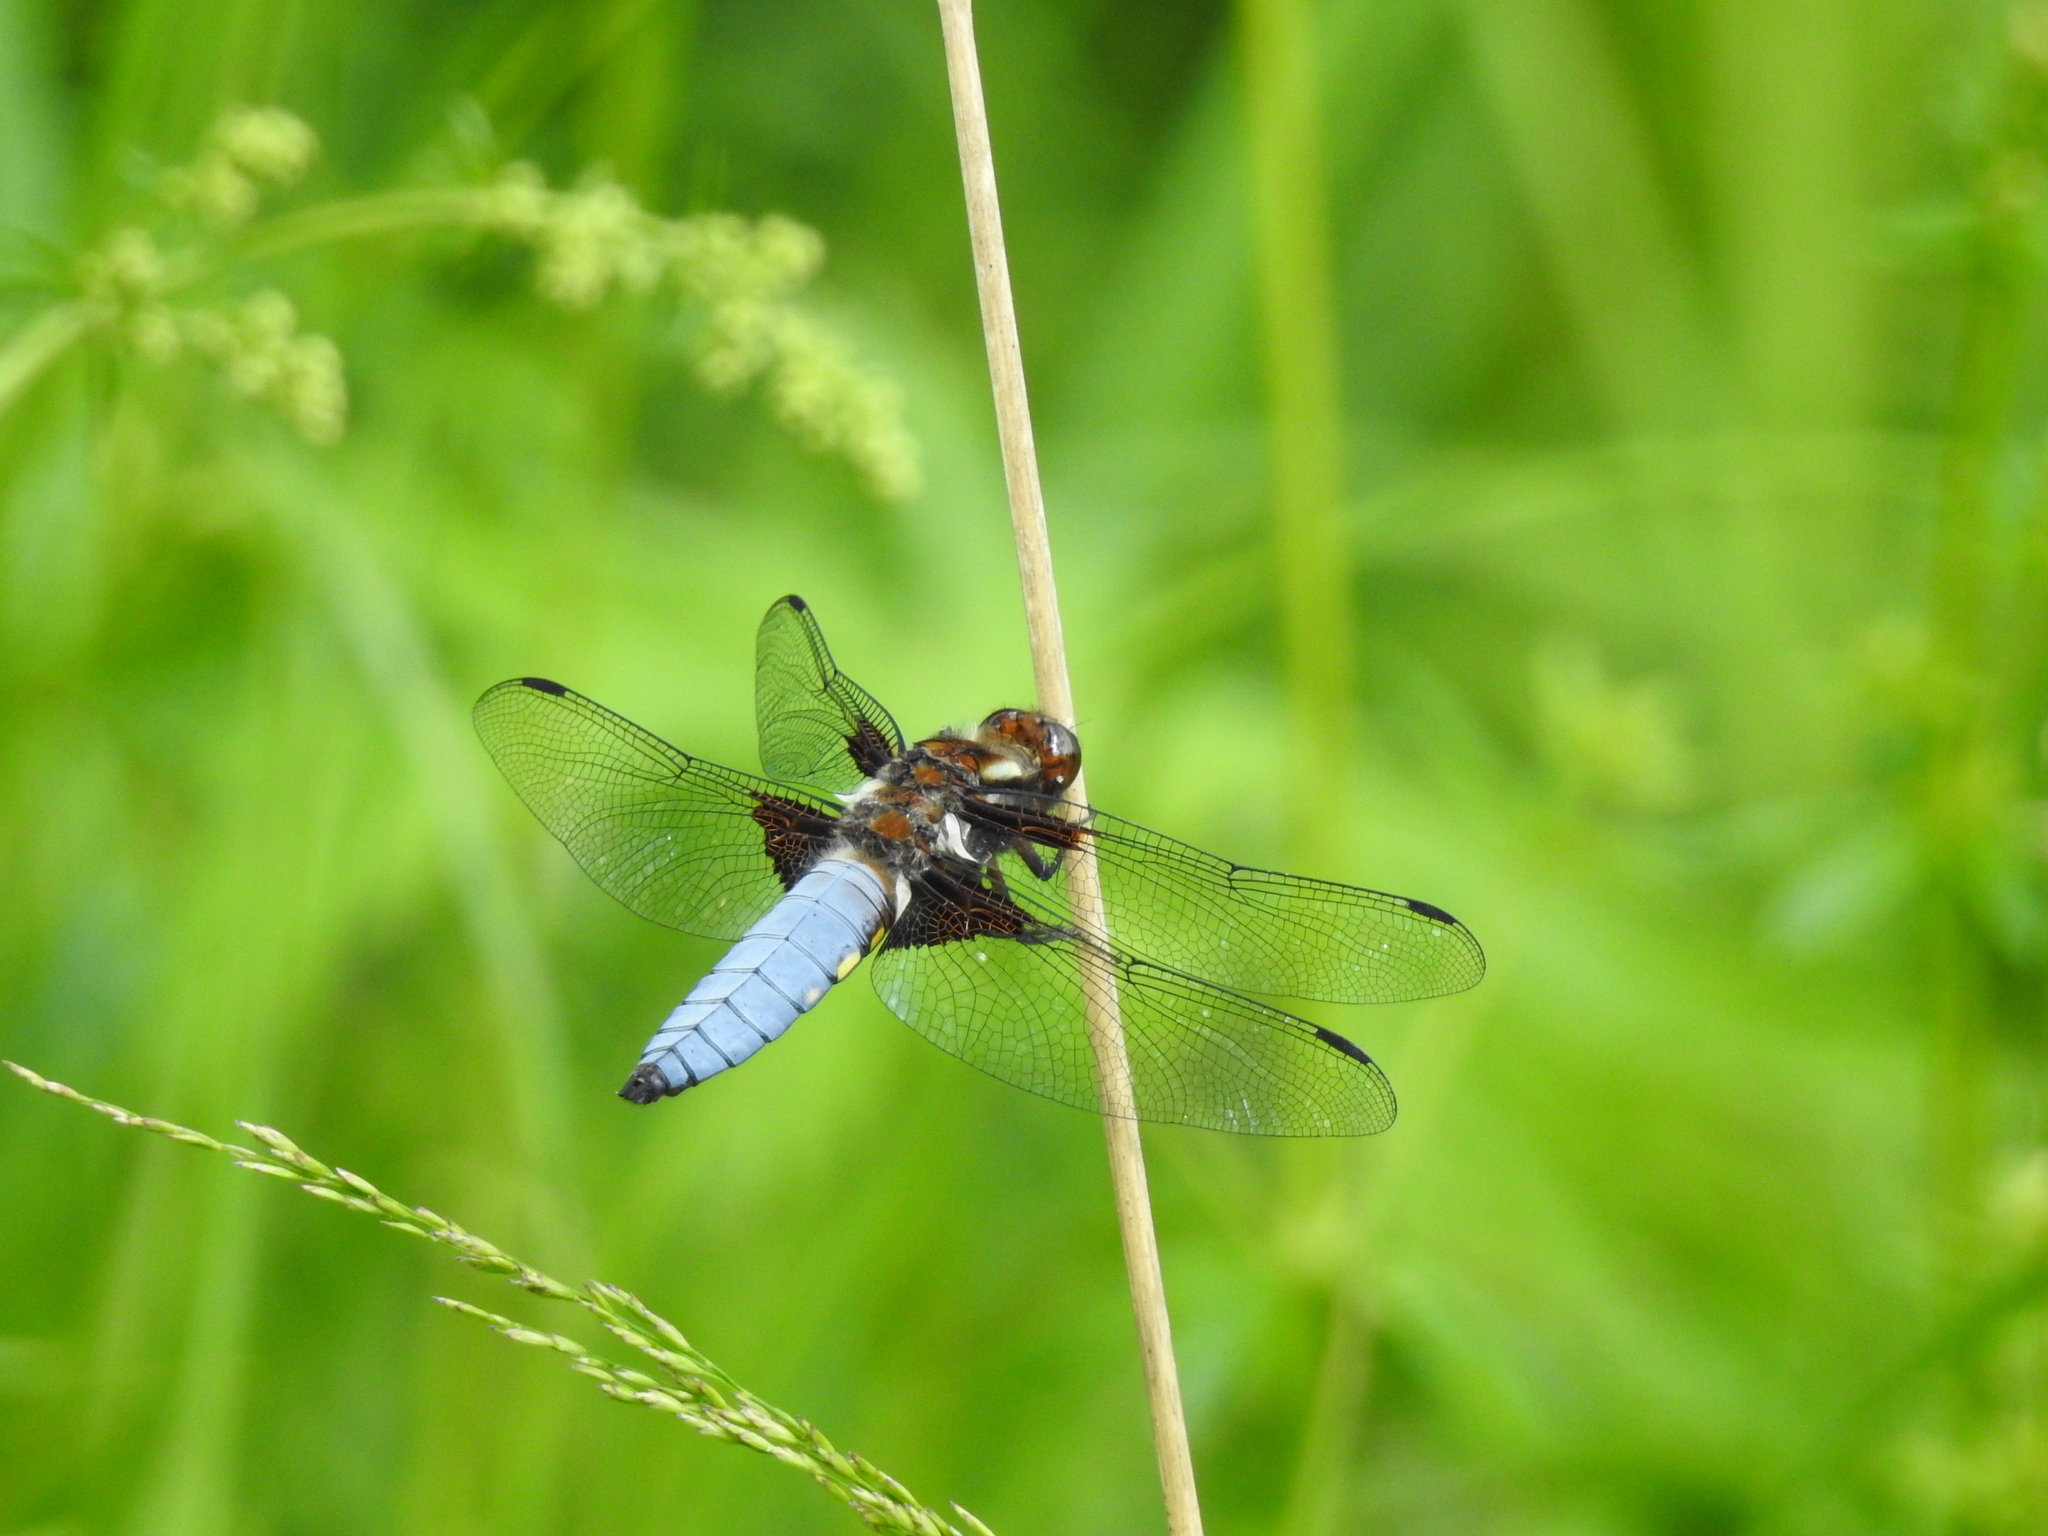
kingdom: Animalia
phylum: Arthropoda
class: Insecta
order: Odonata
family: Libellulidae
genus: Libellula
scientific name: Libellula depressa
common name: Broad-bodied chaser
